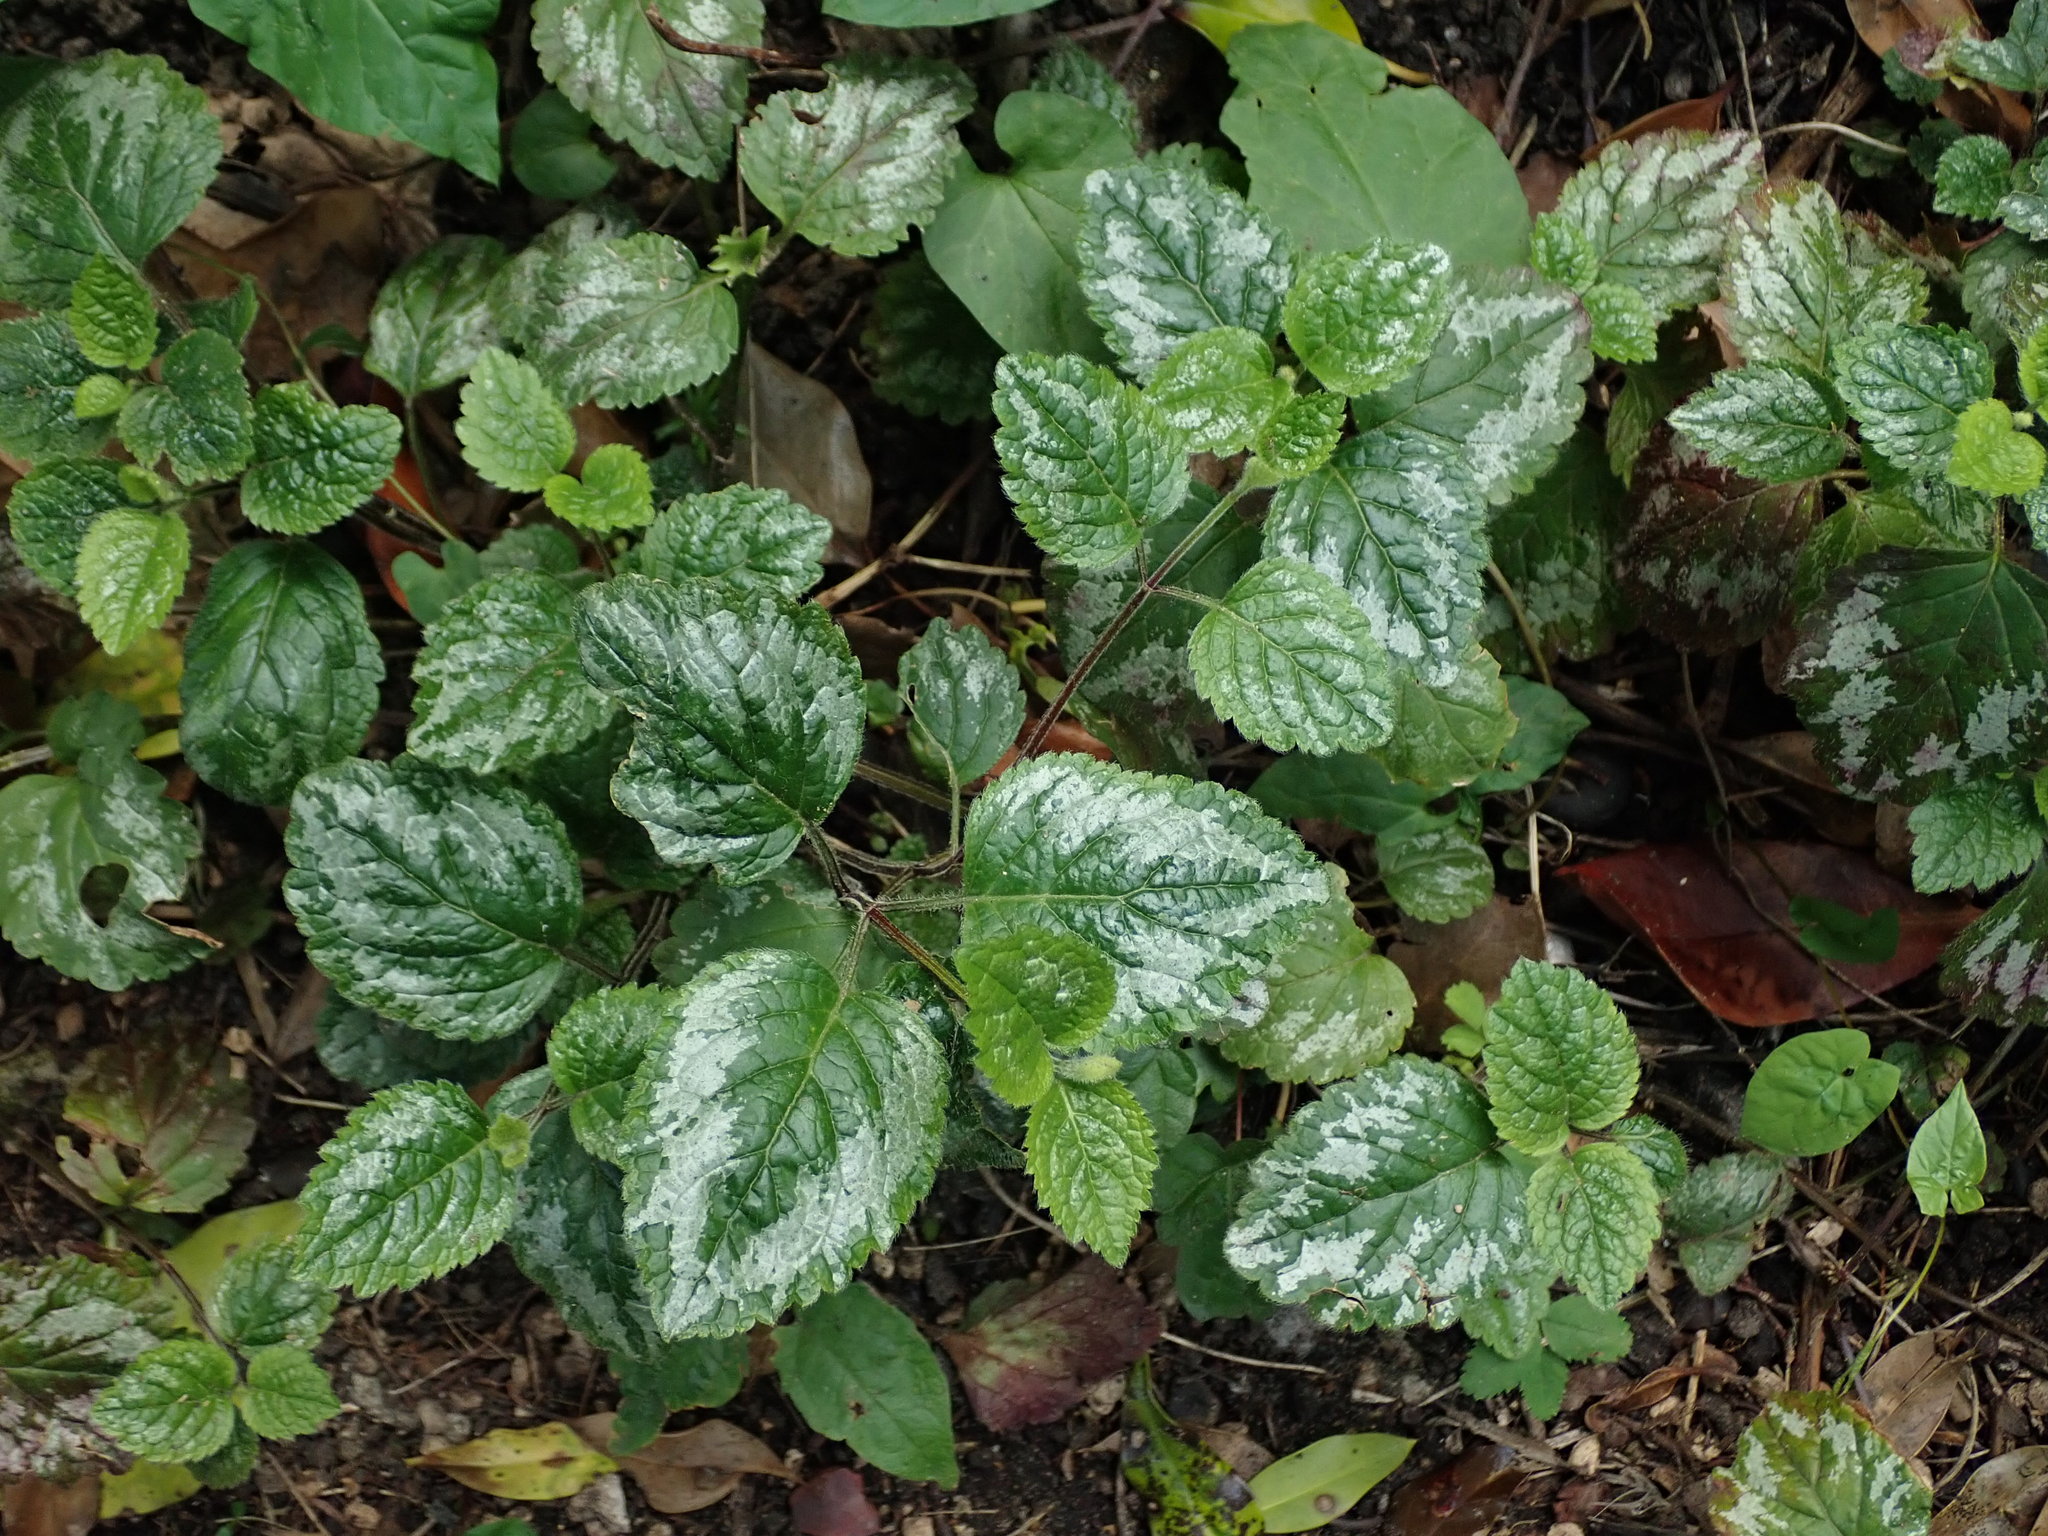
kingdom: Plantae
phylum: Tracheophyta
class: Magnoliopsida
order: Lamiales
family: Lamiaceae
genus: Lamium
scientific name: Lamium galeobdolon
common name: Yellow archangel
